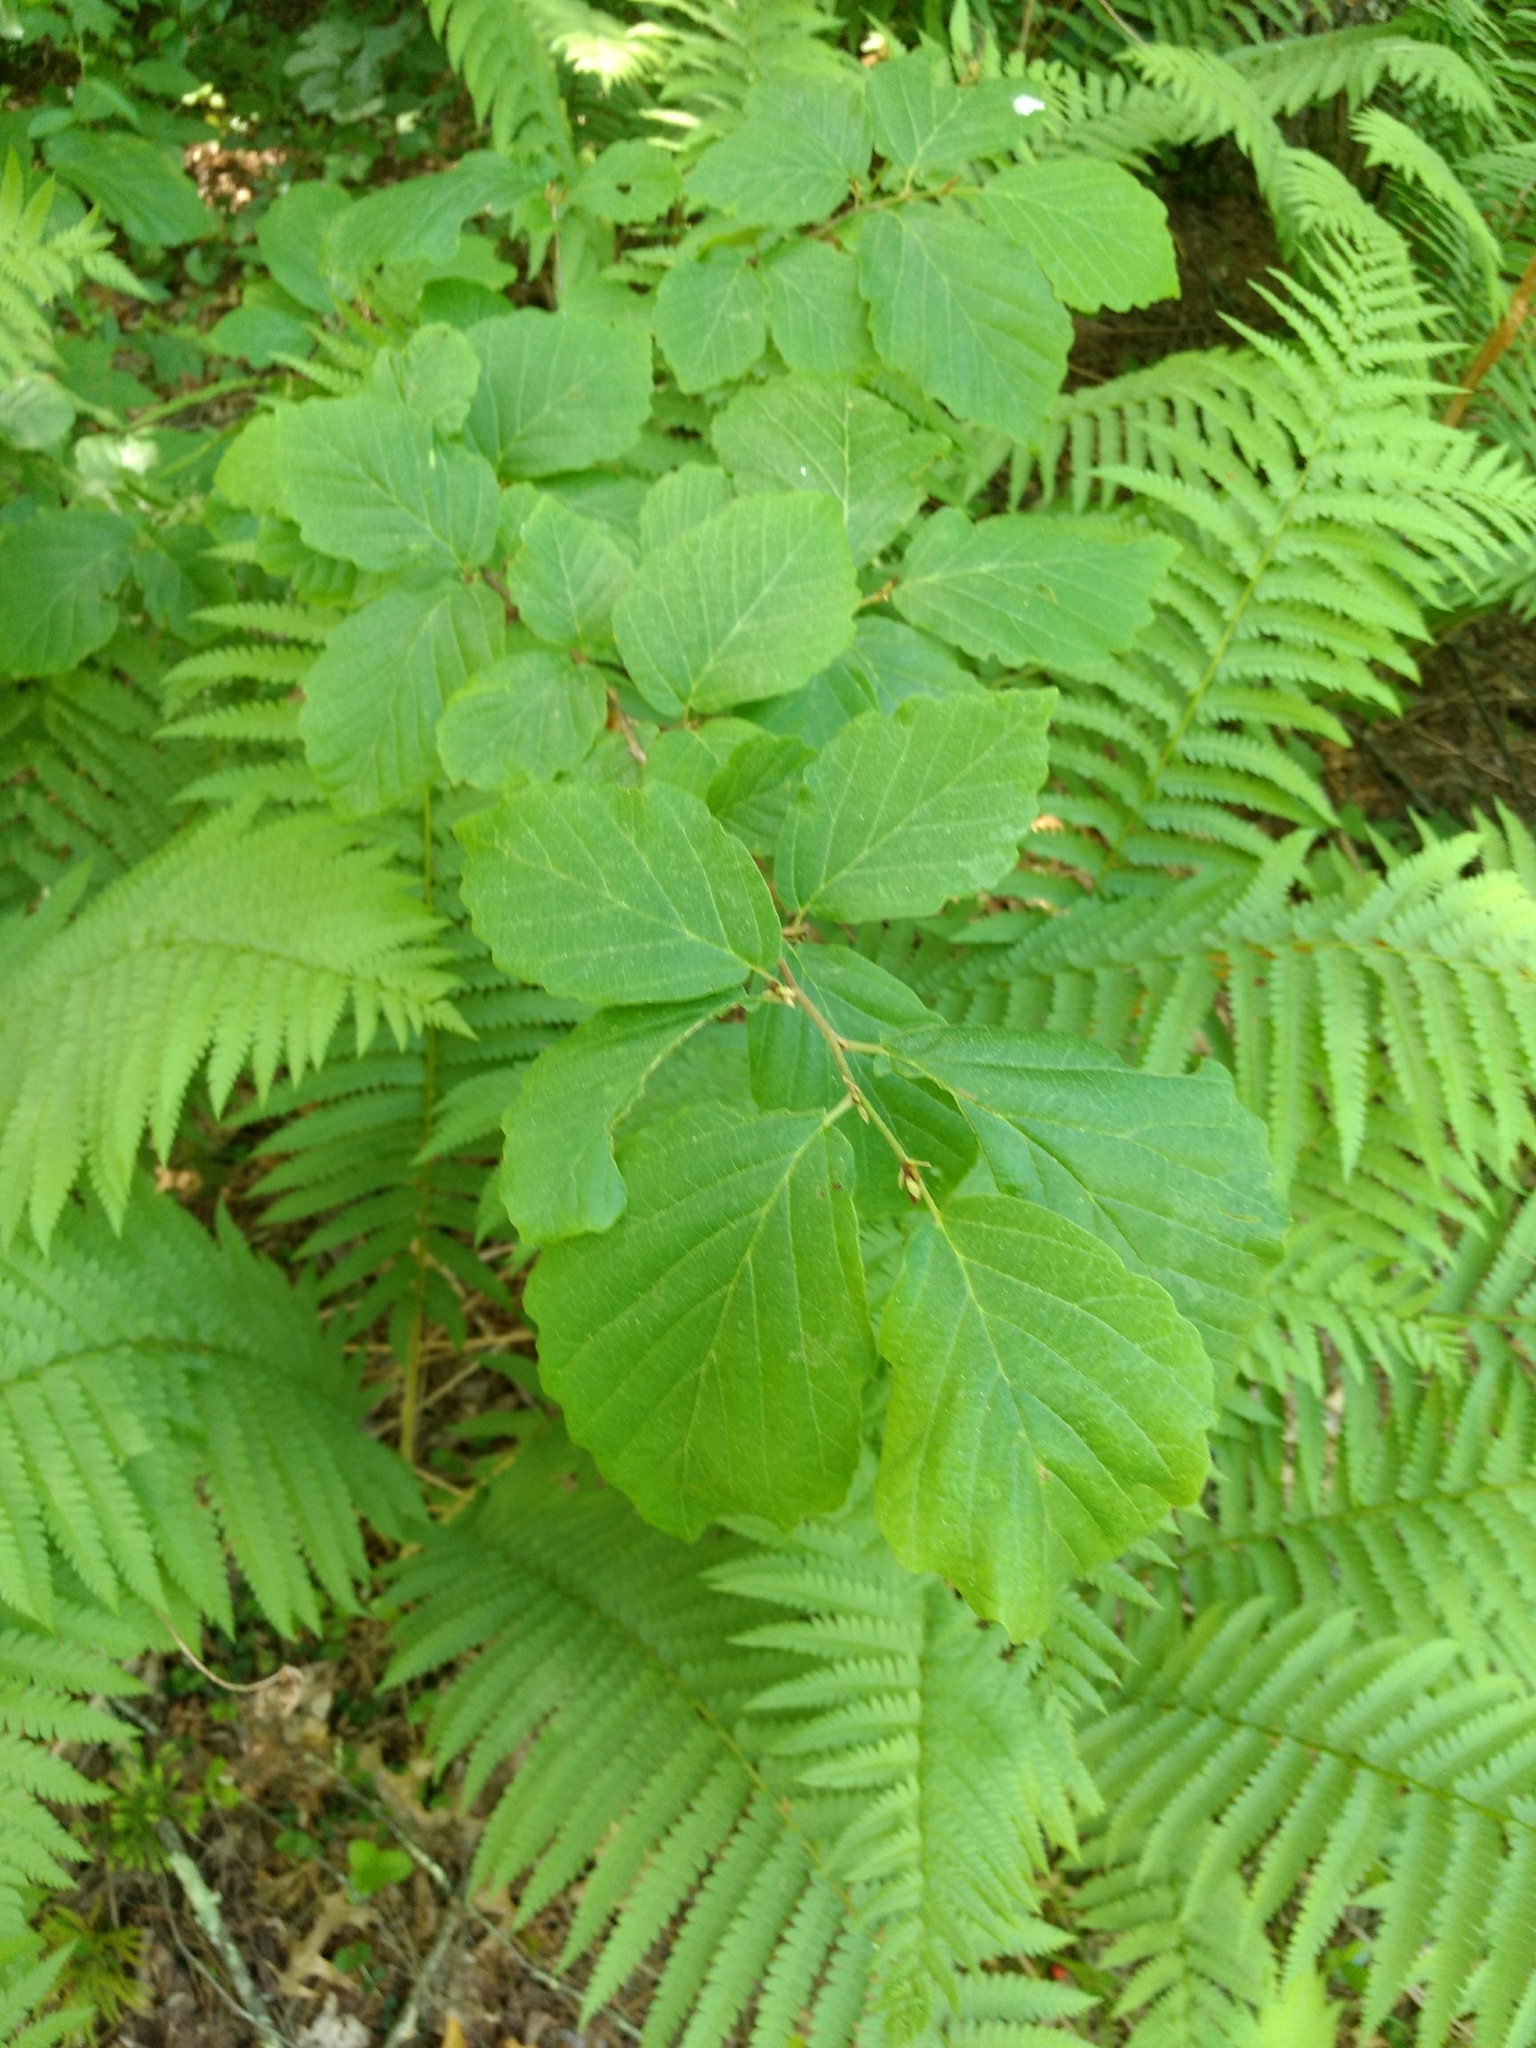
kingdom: Plantae
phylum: Tracheophyta
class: Magnoliopsida
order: Saxifragales
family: Hamamelidaceae
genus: Hamamelis
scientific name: Hamamelis virginiana
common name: Witch-hazel
